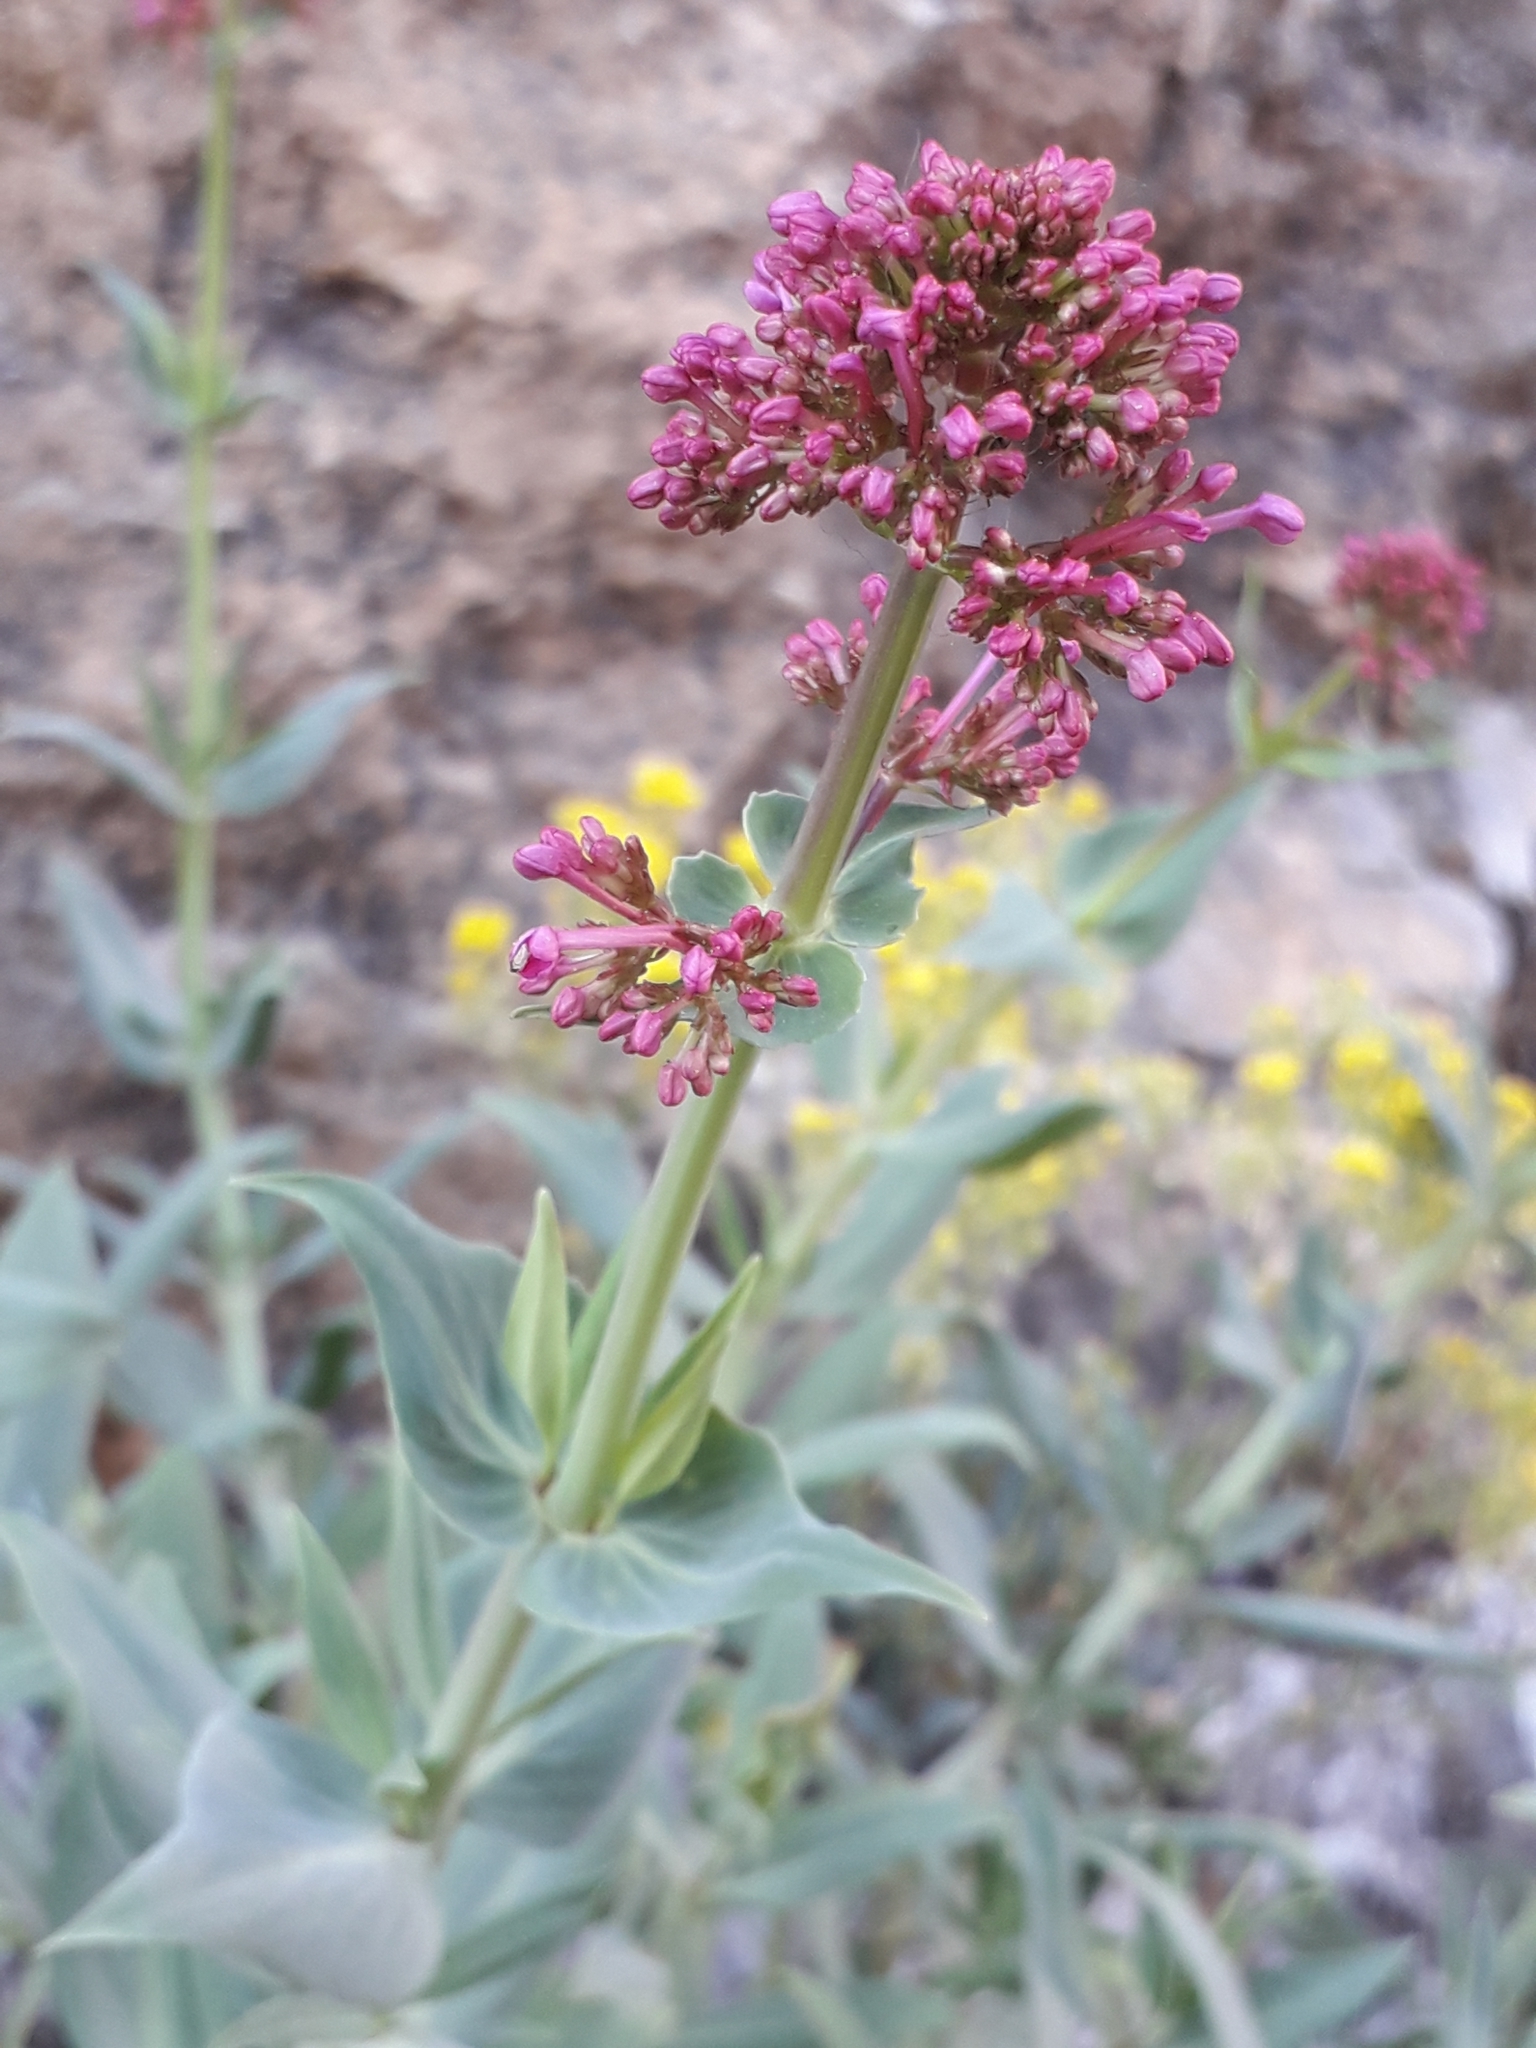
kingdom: Plantae
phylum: Tracheophyta
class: Magnoliopsida
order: Dipsacales
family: Caprifoliaceae
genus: Centranthus
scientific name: Centranthus ruber
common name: Red valerian
